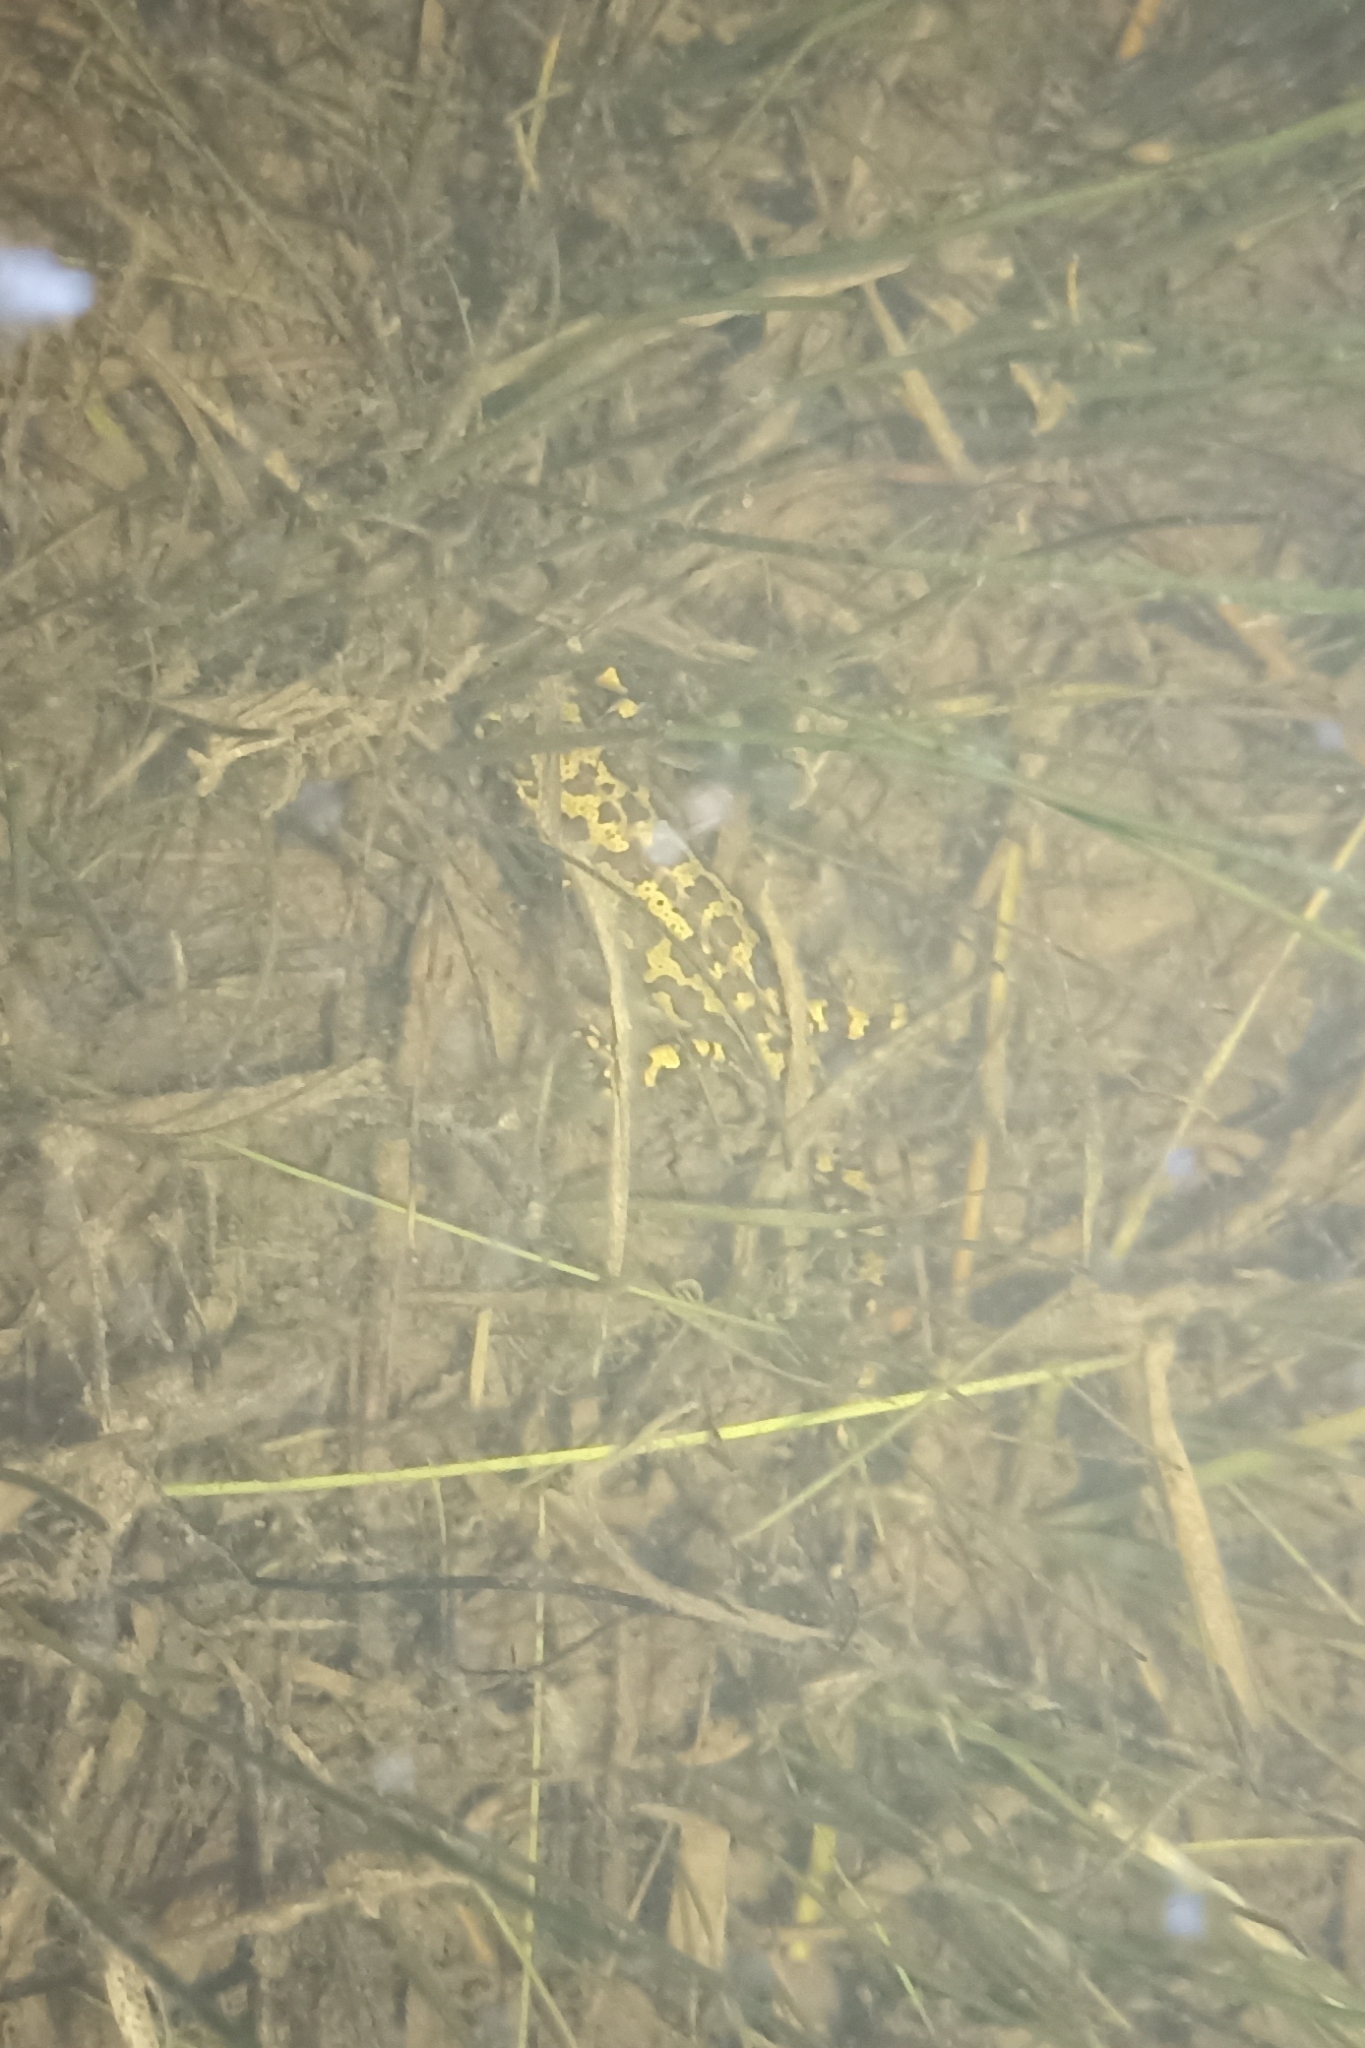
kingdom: Animalia
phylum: Chordata
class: Amphibia
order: Caudata
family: Salamandridae
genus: Triturus
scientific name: Triturus marmoratus
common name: Marbled newt
